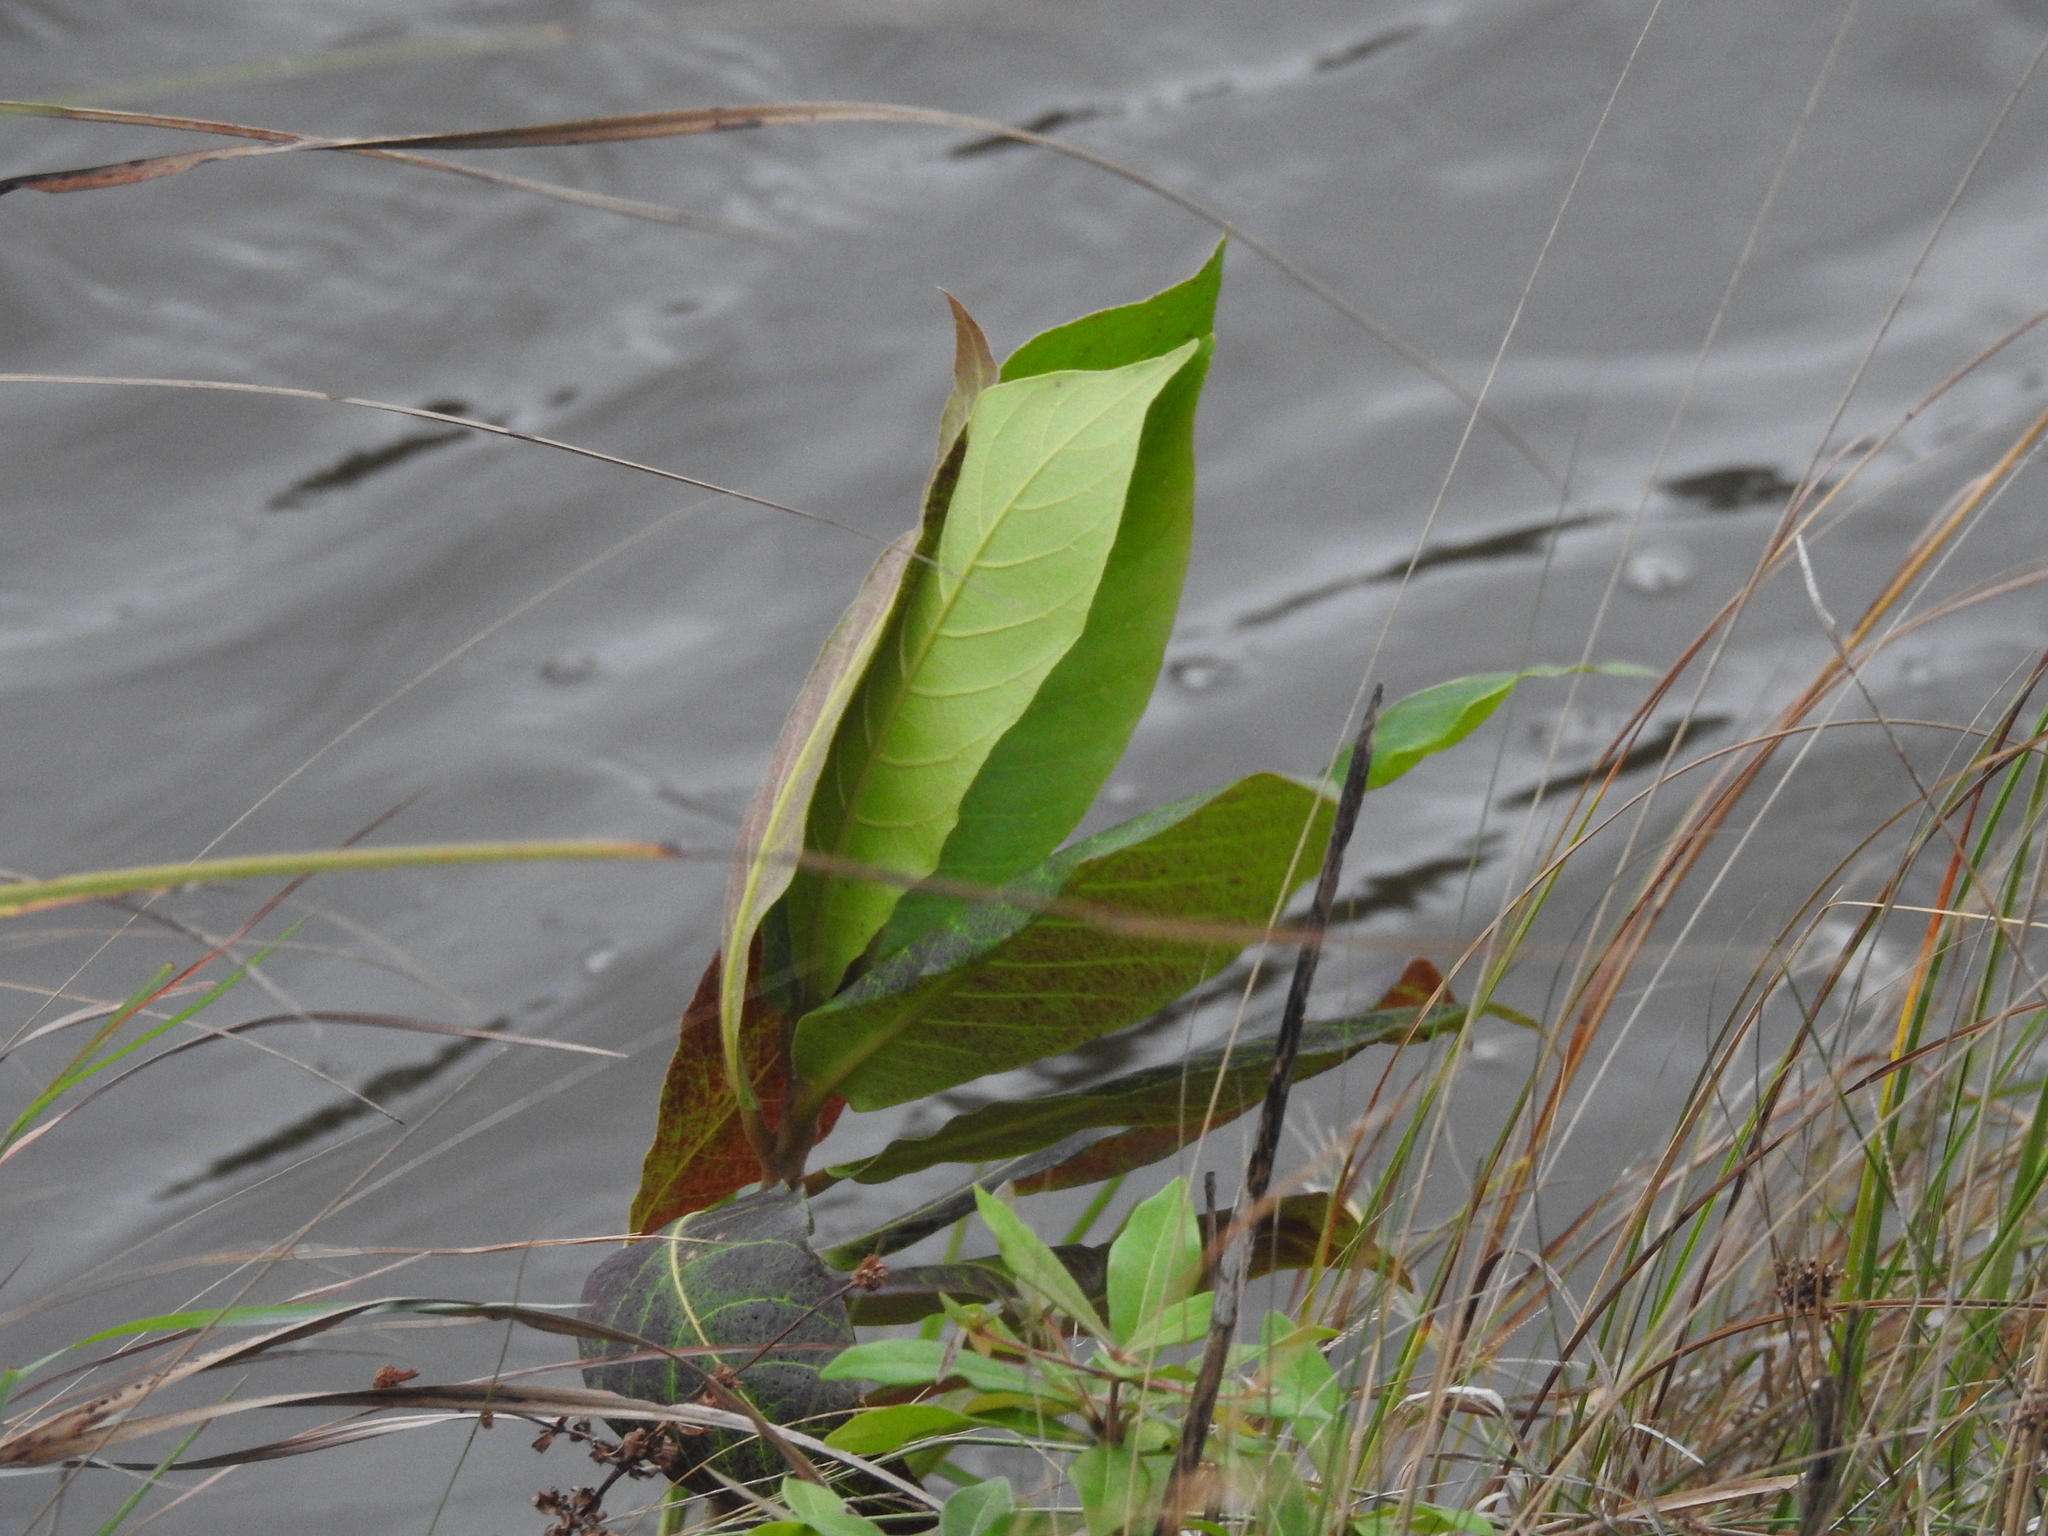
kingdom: Plantae
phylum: Tracheophyta
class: Magnoliopsida
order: Myrtales
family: Combretaceae
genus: Terminalia
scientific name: Terminalia catappa
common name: Tropical almond
